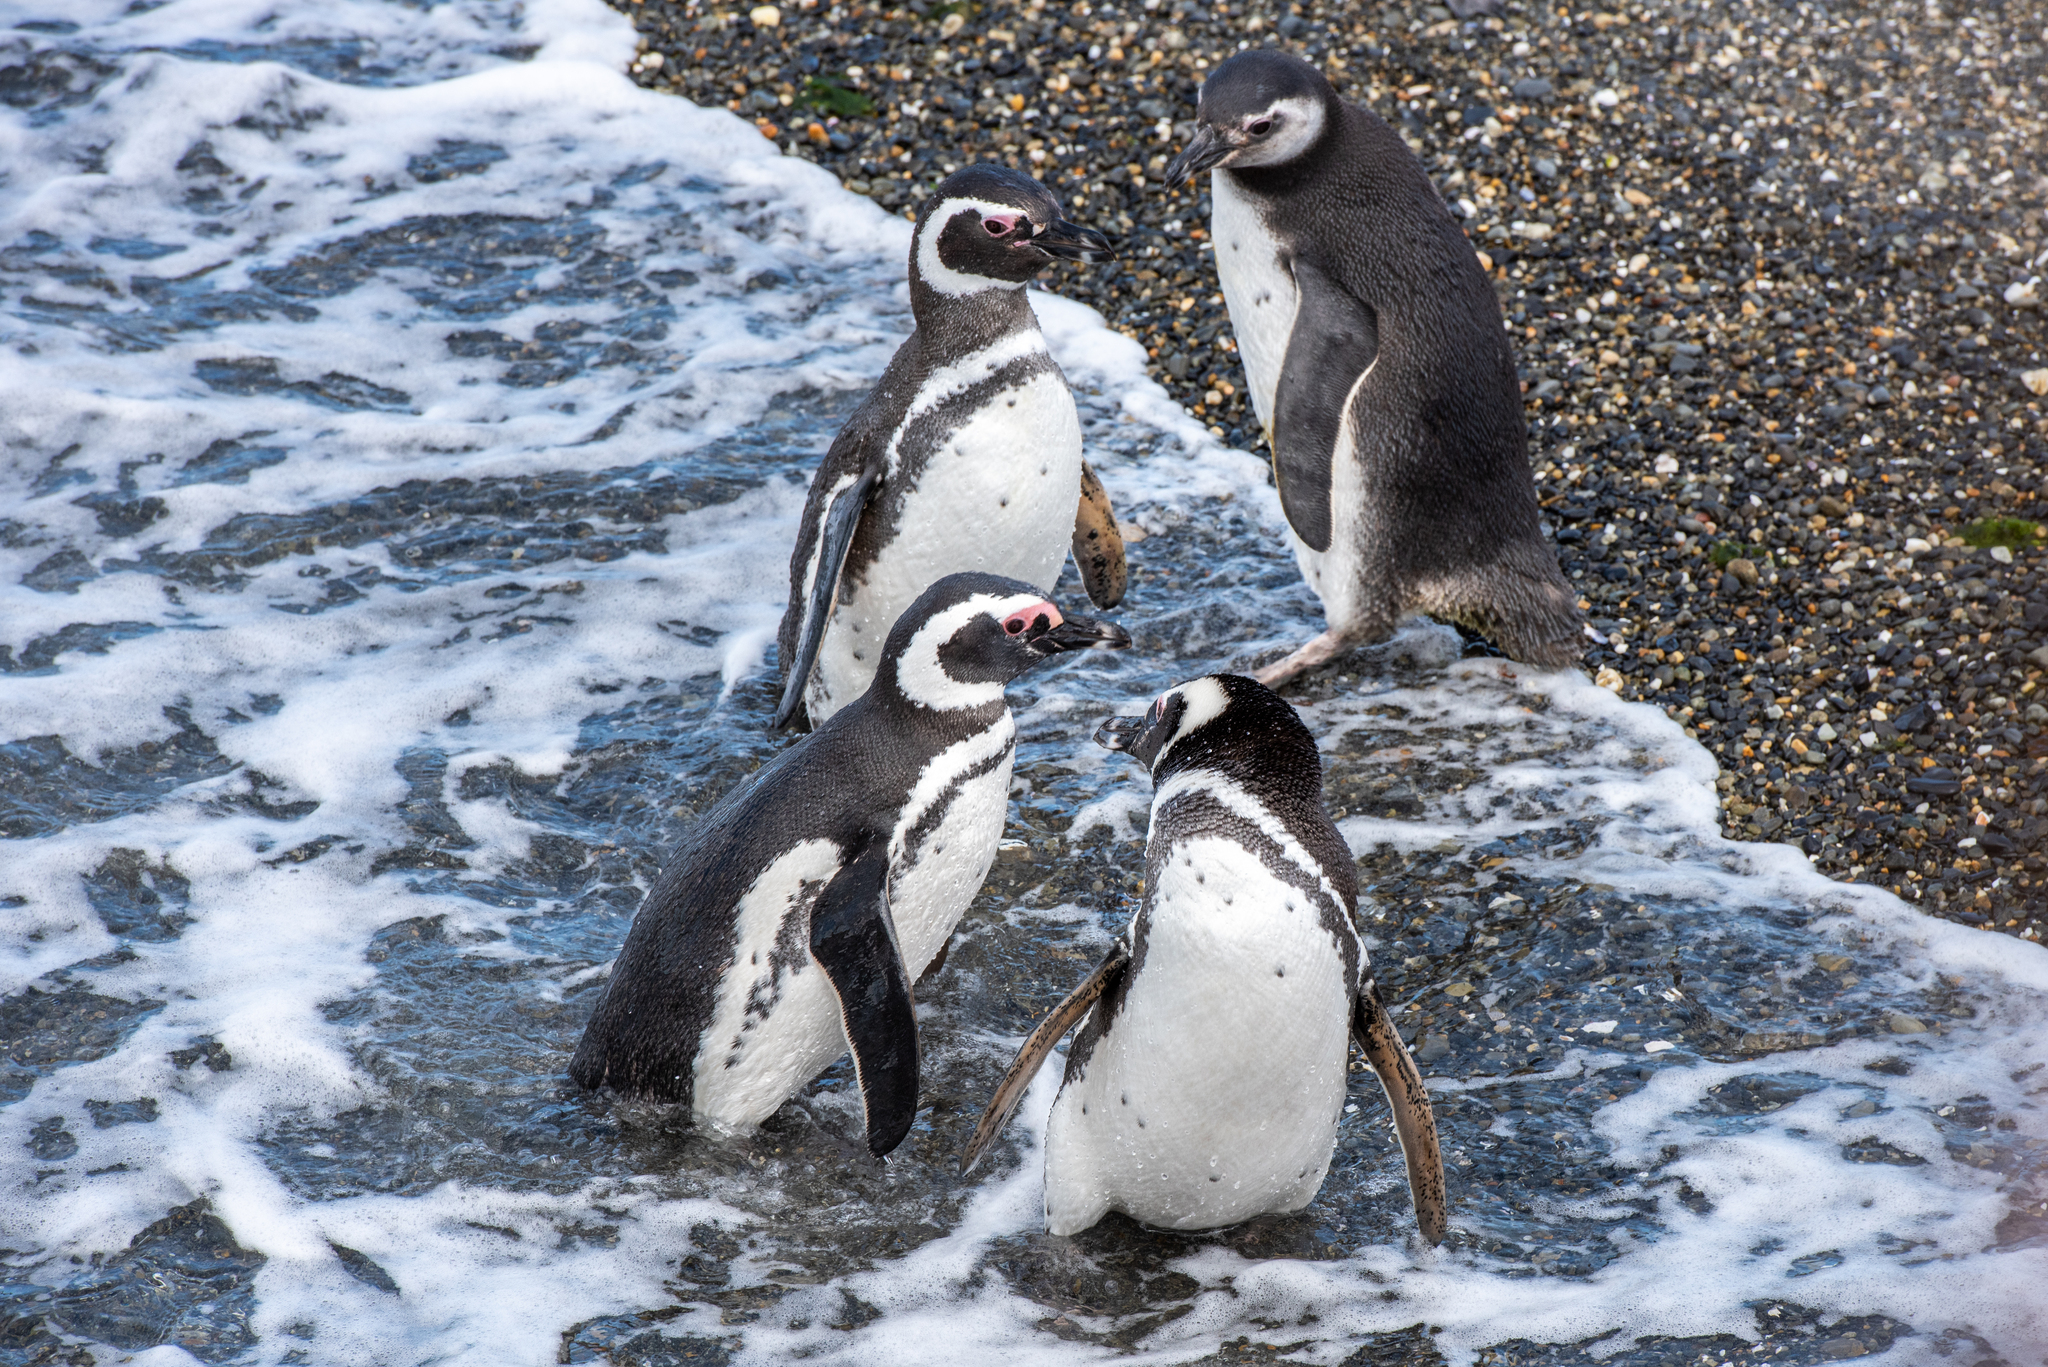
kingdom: Animalia
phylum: Chordata
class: Aves
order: Sphenisciformes
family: Spheniscidae
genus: Spheniscus
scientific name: Spheniscus magellanicus
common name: Magellanic penguin
